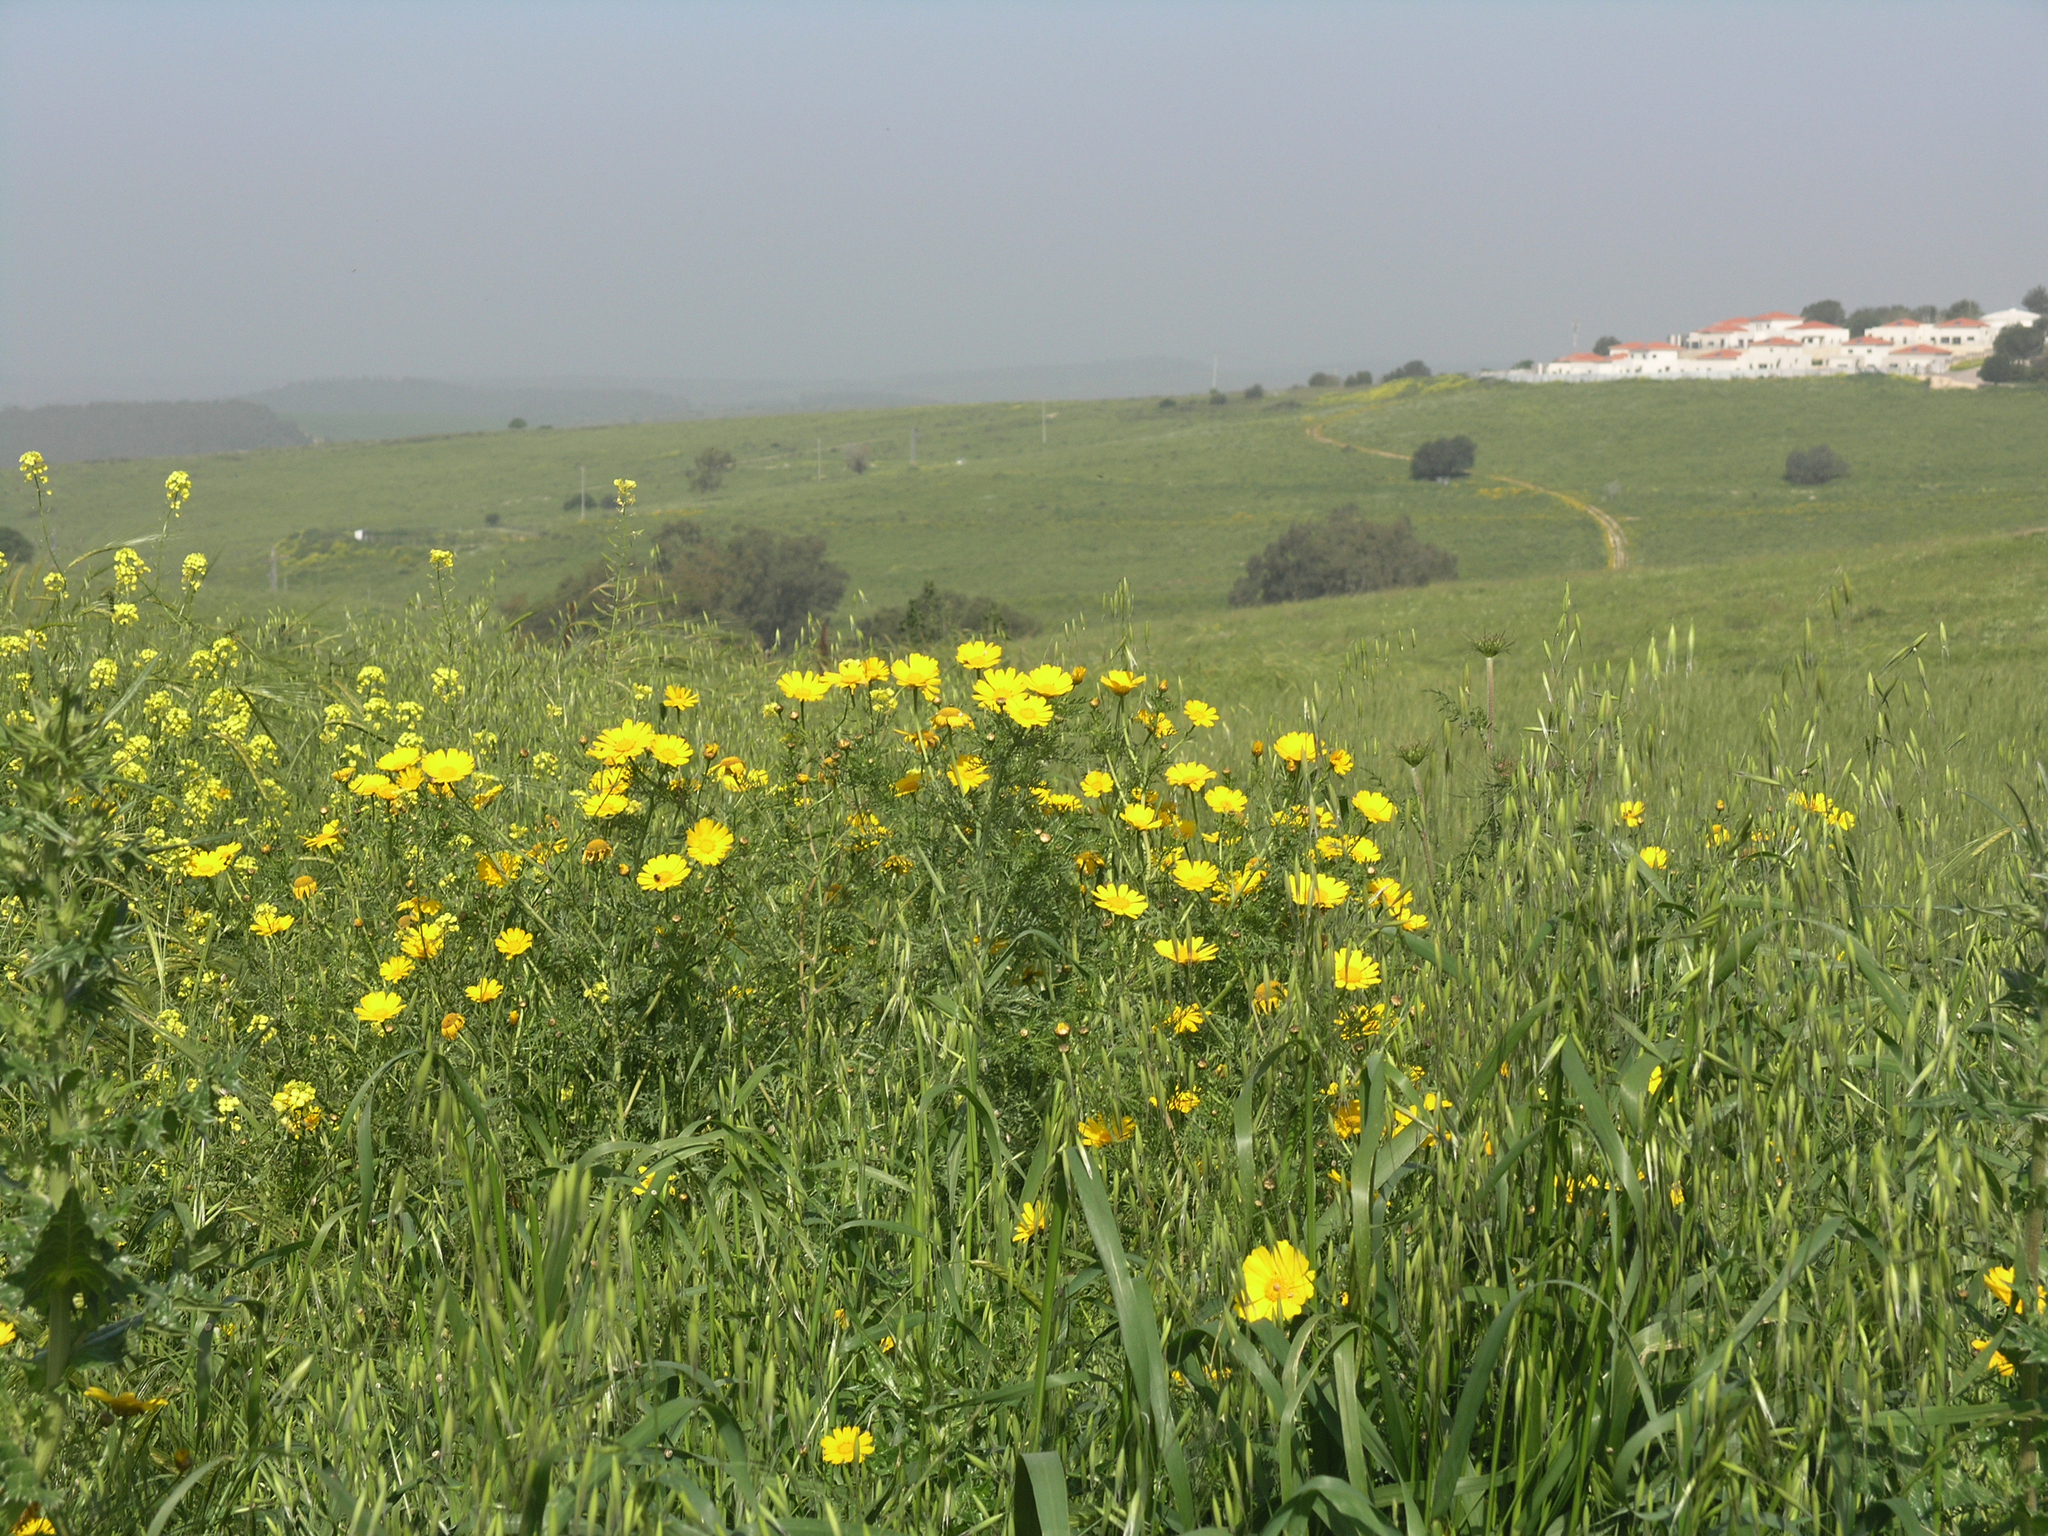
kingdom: Plantae
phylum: Tracheophyta
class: Magnoliopsida
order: Asterales
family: Asteraceae
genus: Glebionis
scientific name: Glebionis coronaria
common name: Crowndaisy
